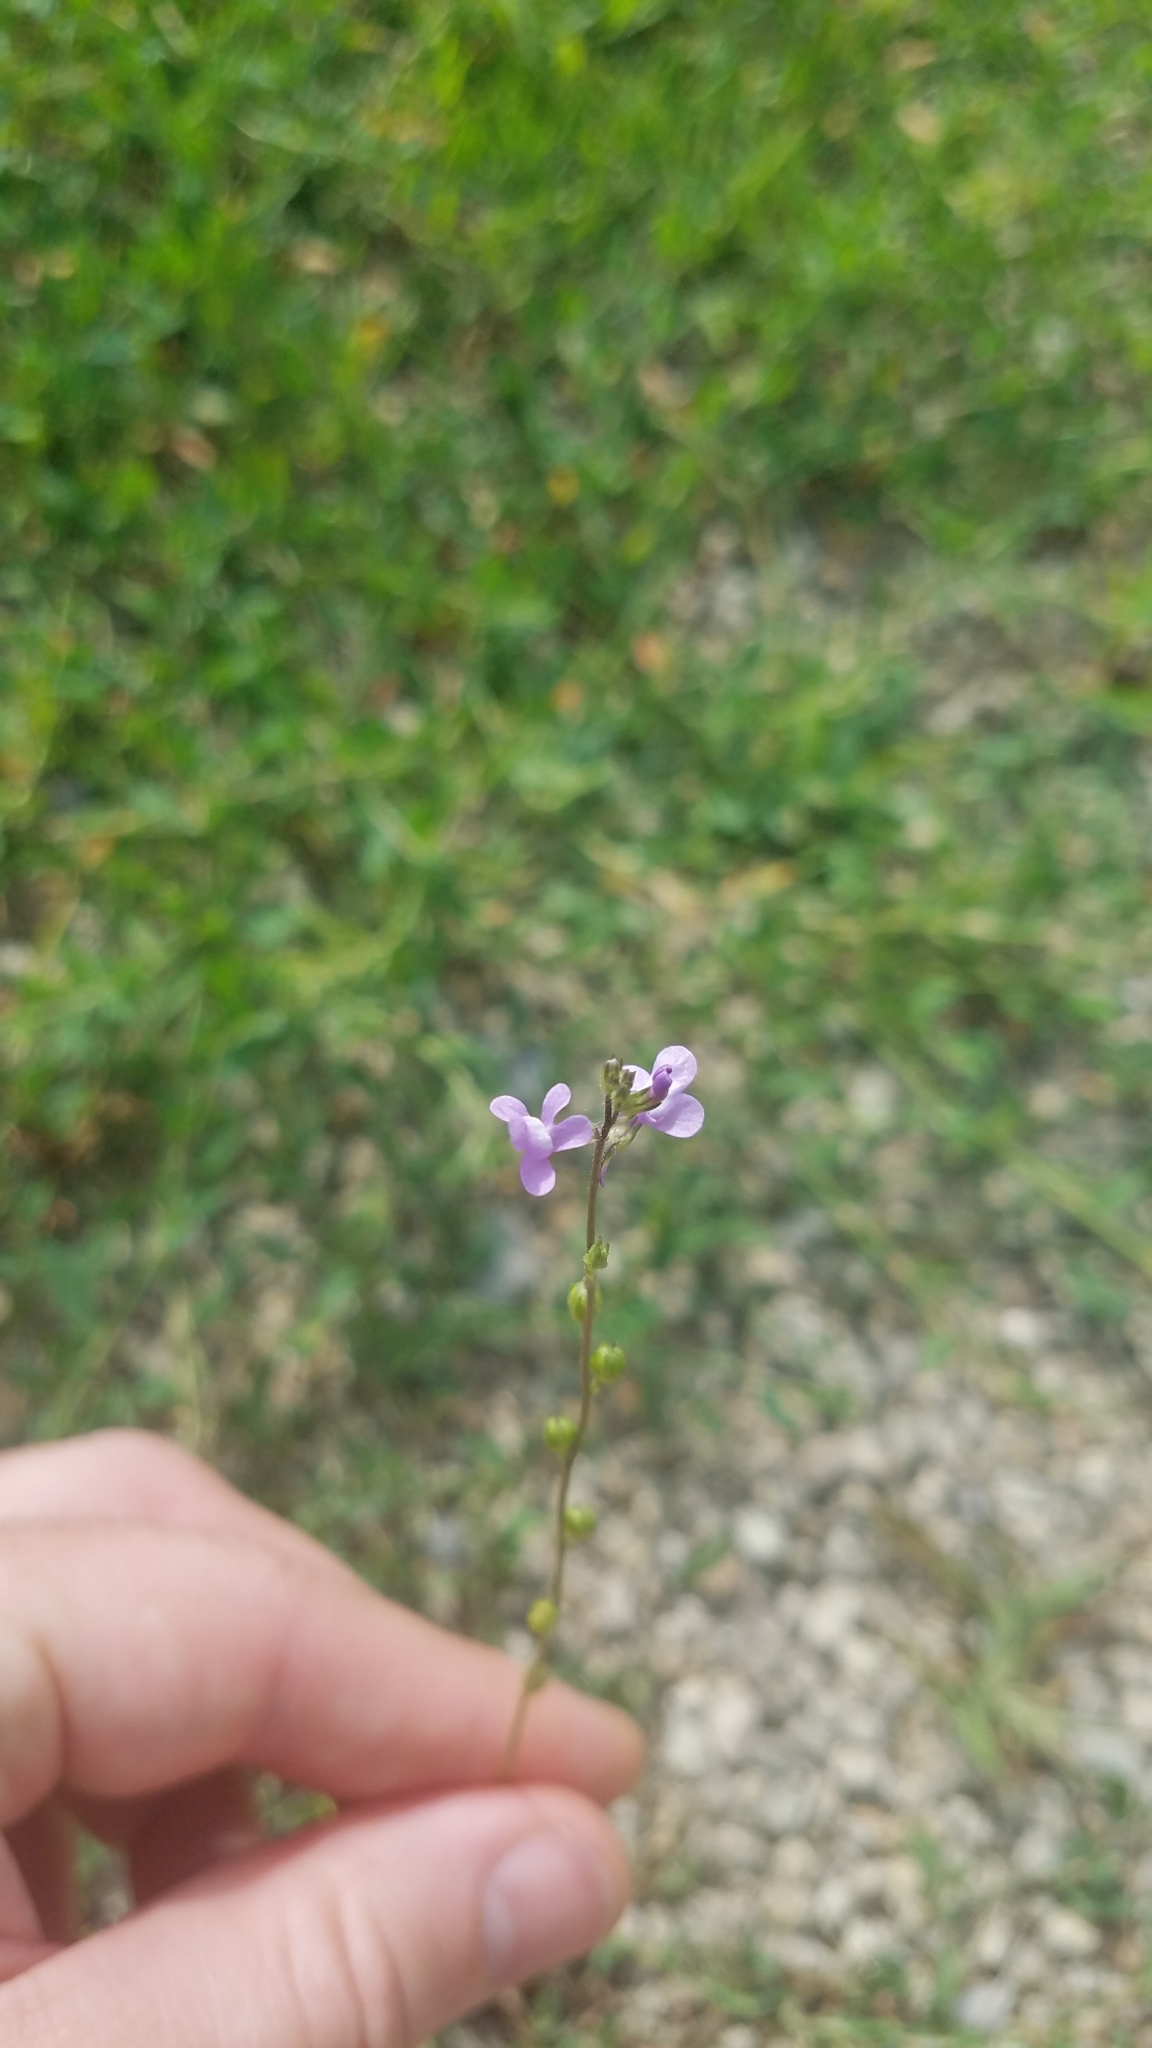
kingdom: Plantae
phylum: Tracheophyta
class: Magnoliopsida
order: Lamiales
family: Plantaginaceae
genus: Nuttallanthus
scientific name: Nuttallanthus canadensis
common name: Blue toadflax
